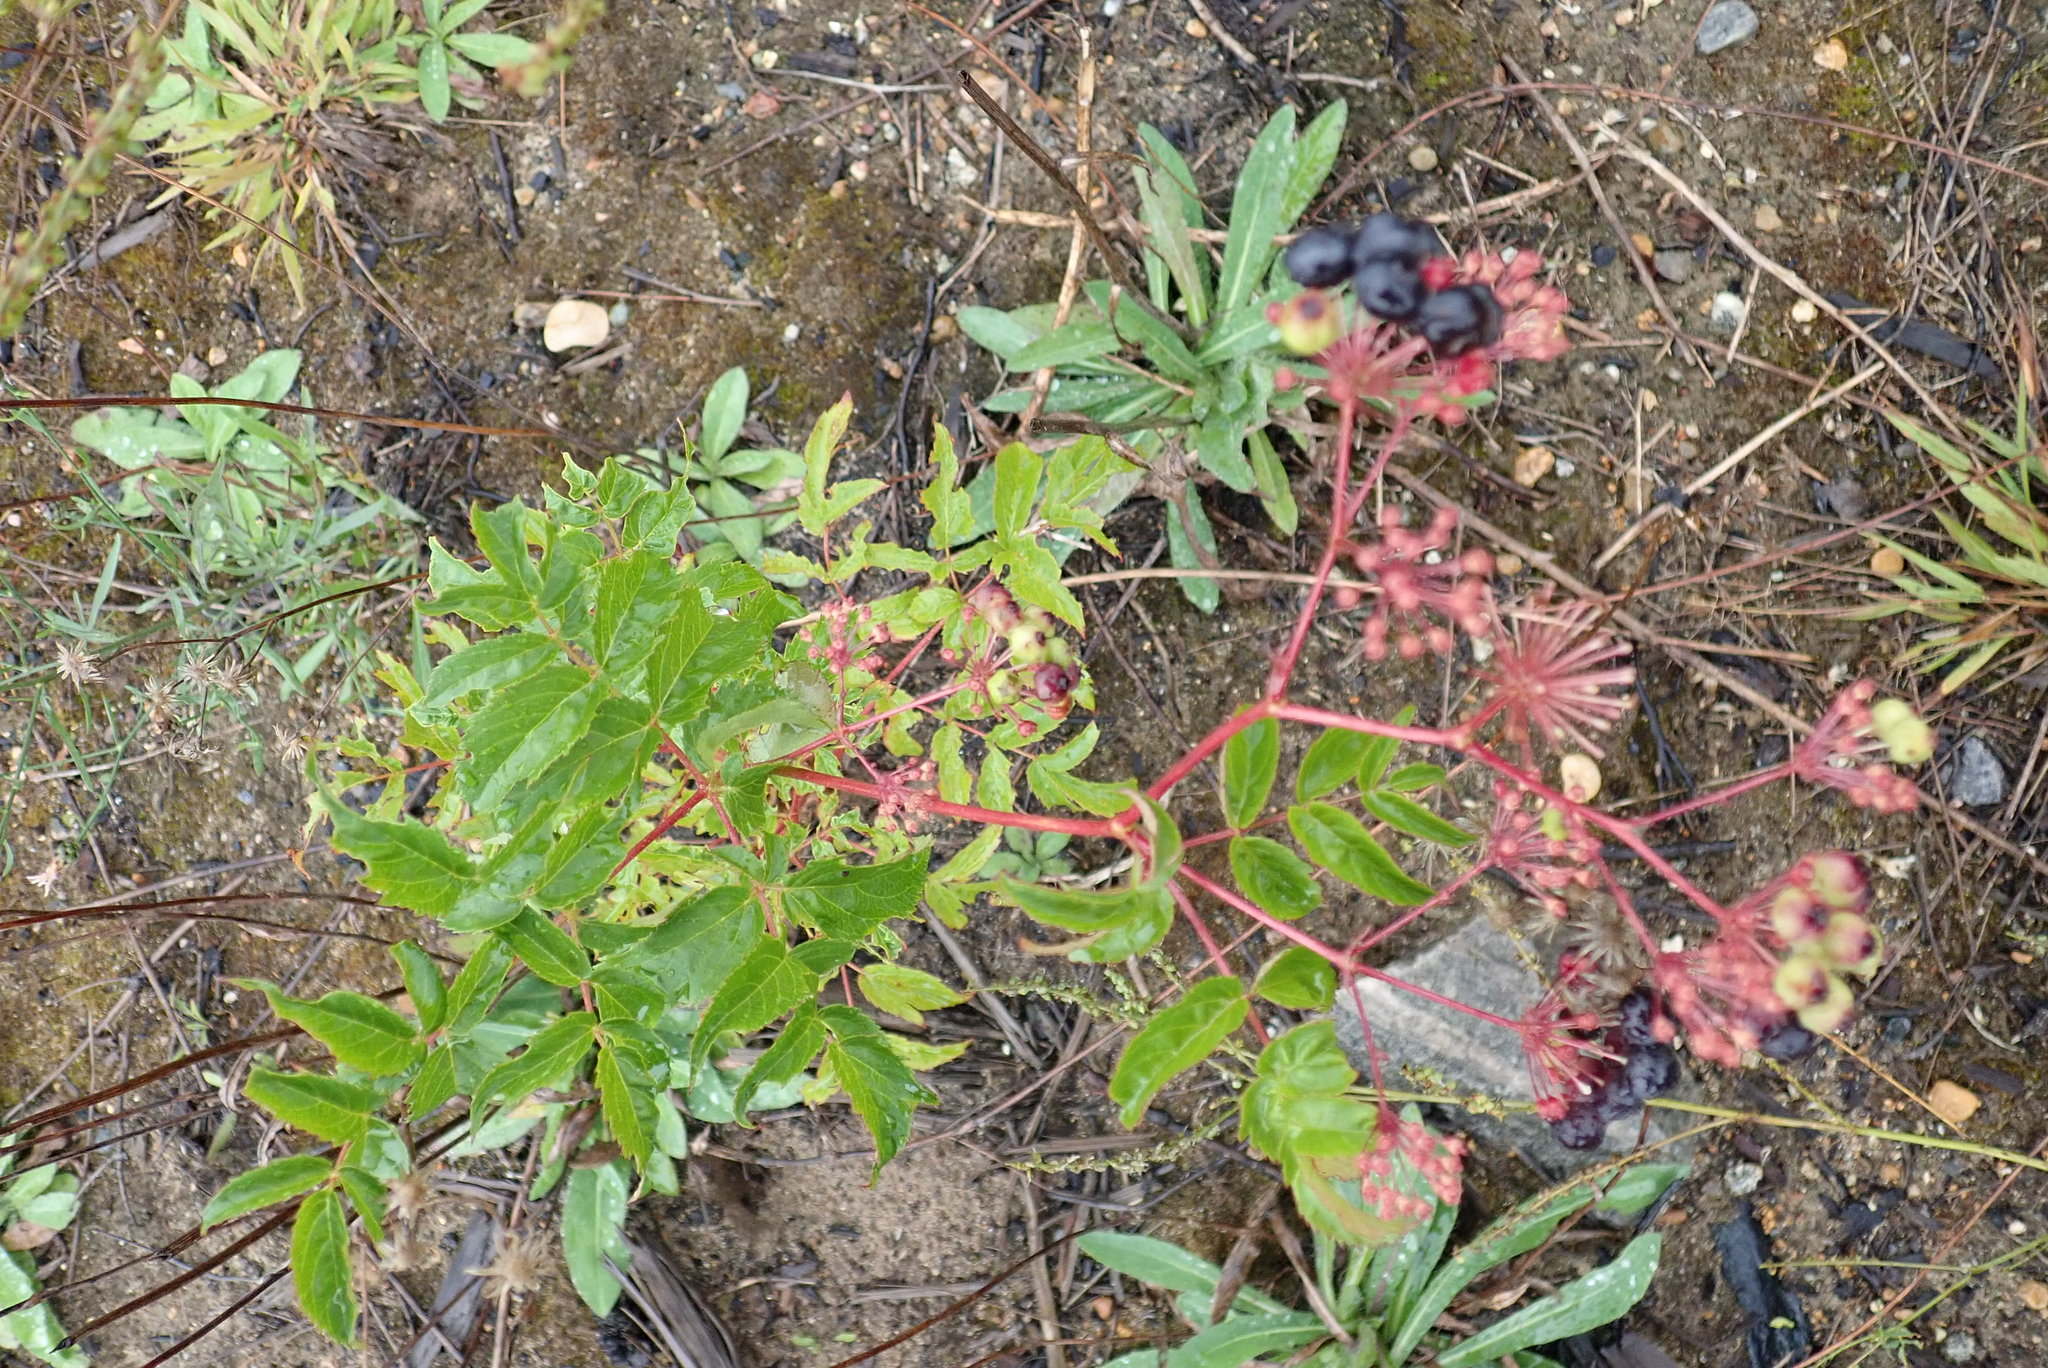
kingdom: Plantae
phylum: Tracheophyta
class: Magnoliopsida
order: Apiales
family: Araliaceae
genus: Aralia
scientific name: Aralia hispida
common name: Bristly sarsaparilla
